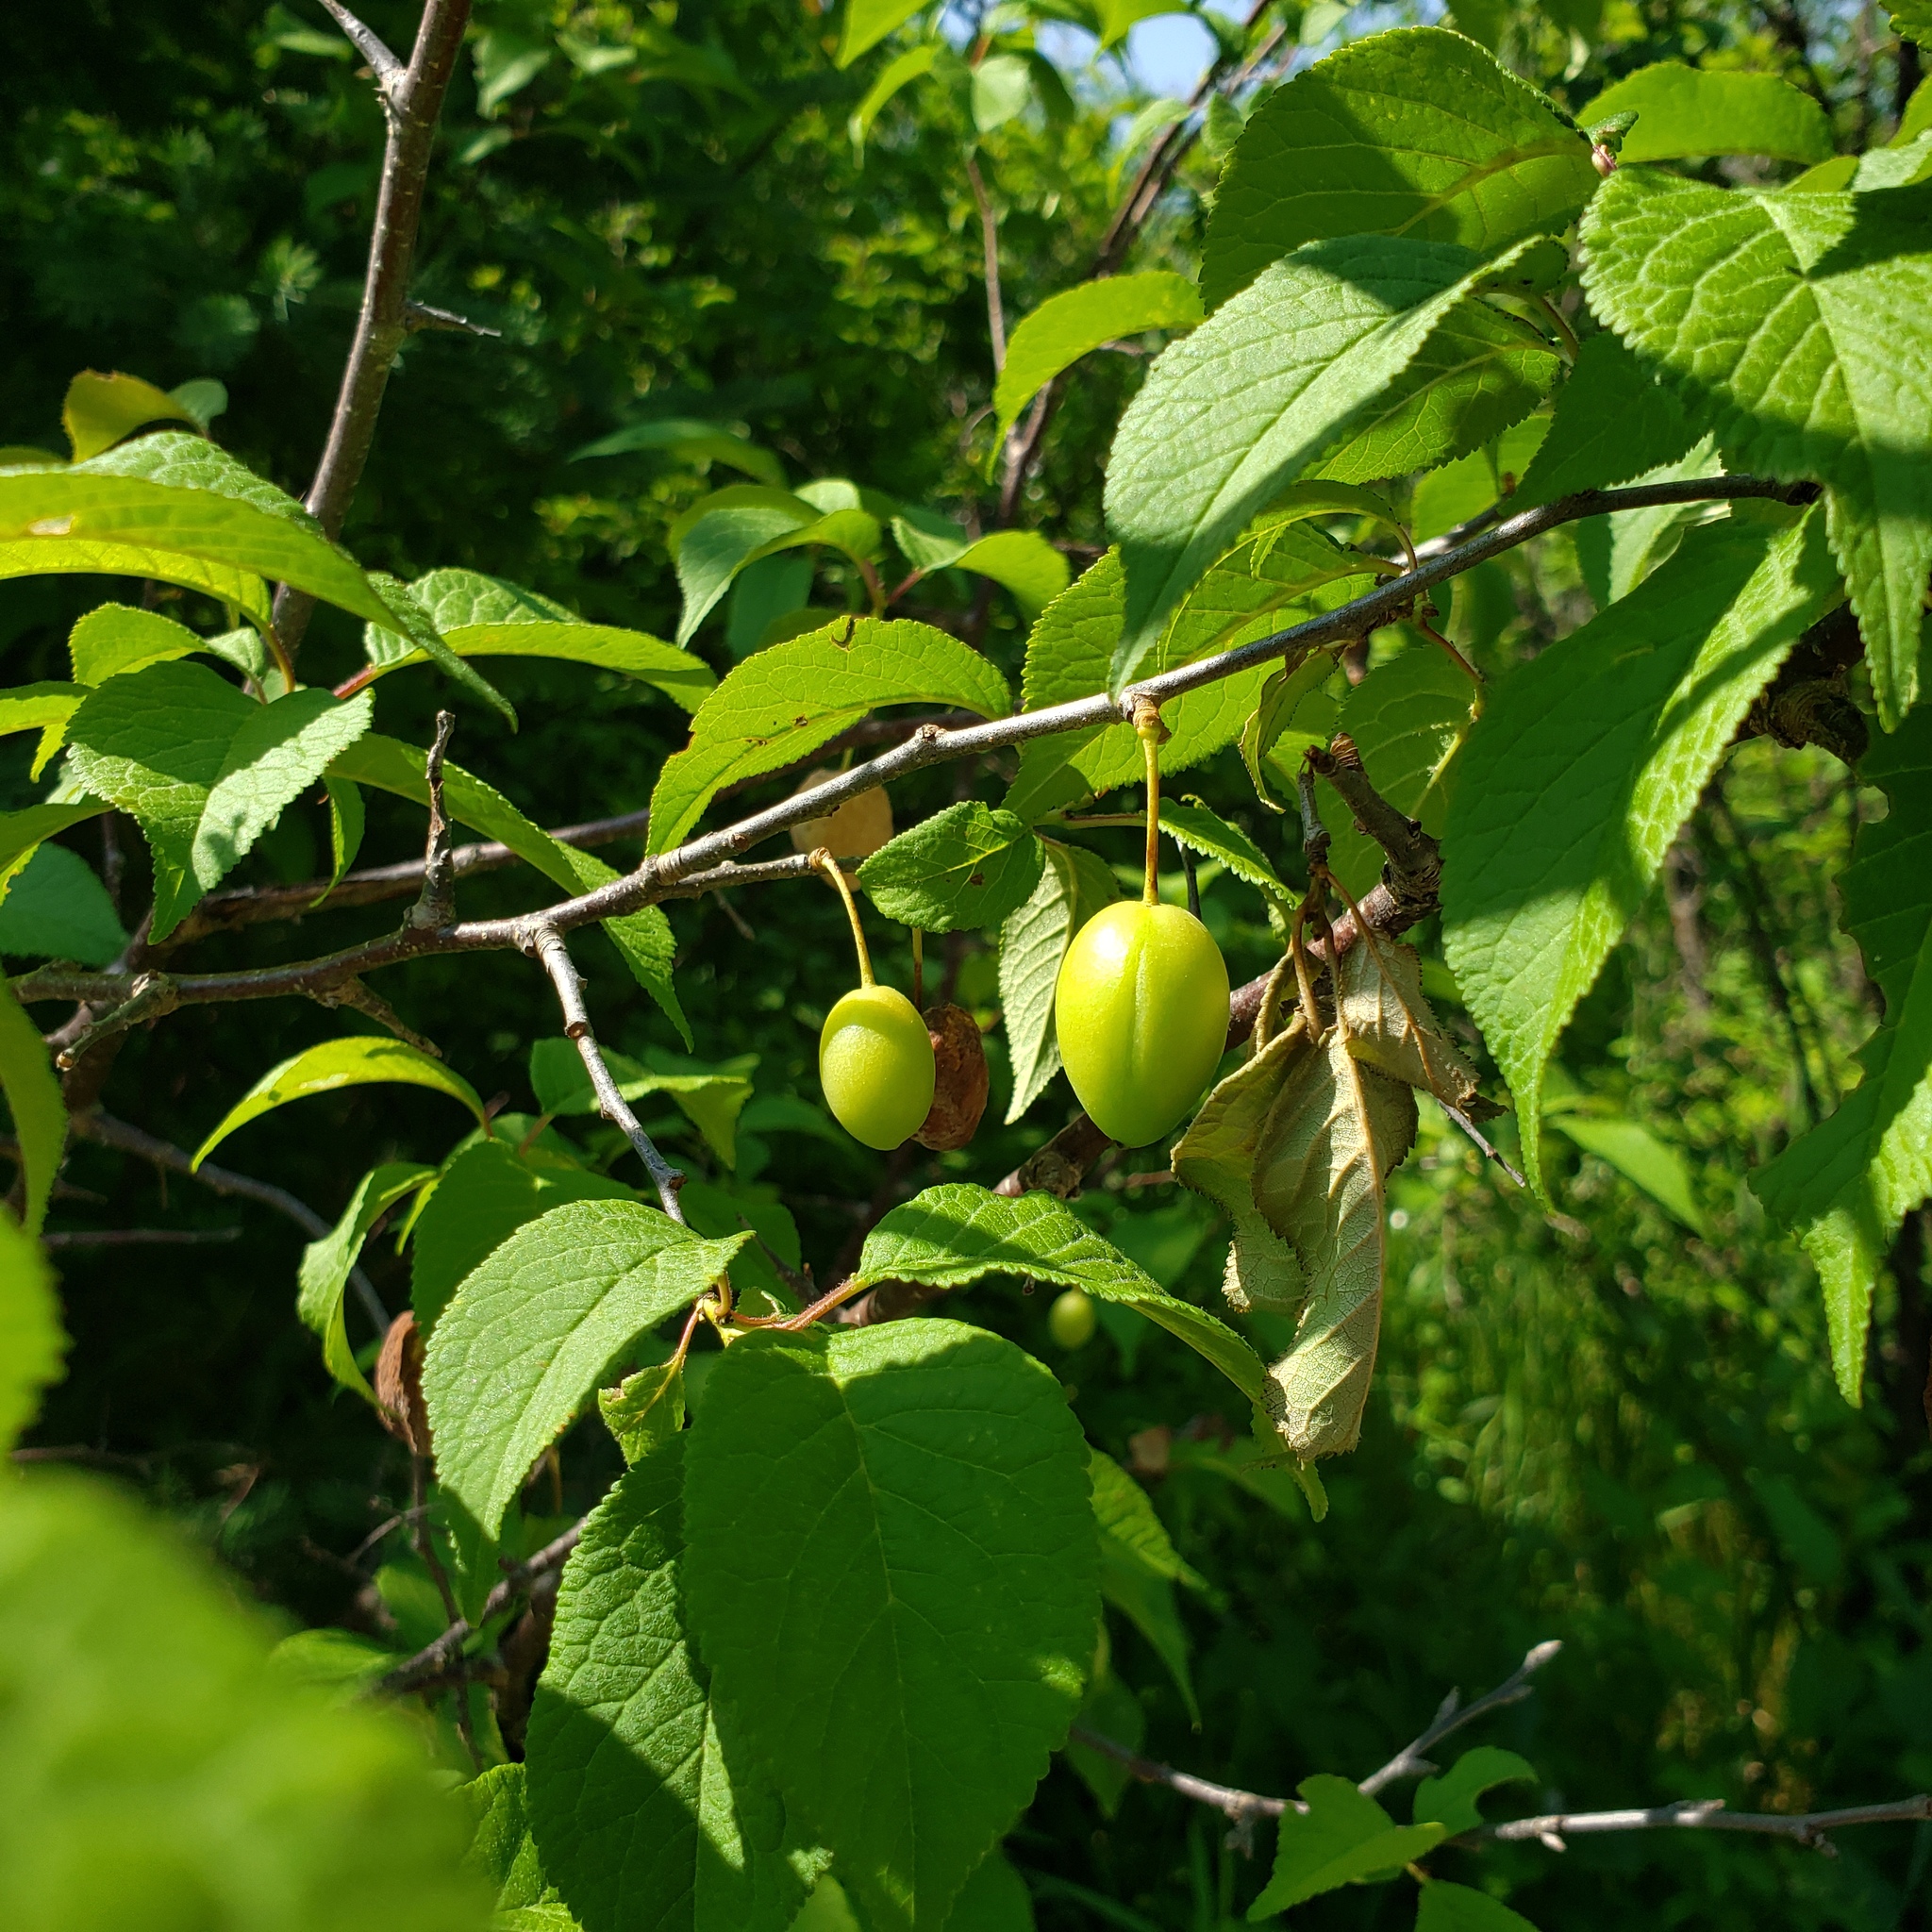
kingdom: Plantae
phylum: Tracheophyta
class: Magnoliopsida
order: Rosales
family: Rosaceae
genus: Prunus
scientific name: Prunus nigra
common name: Black plum
